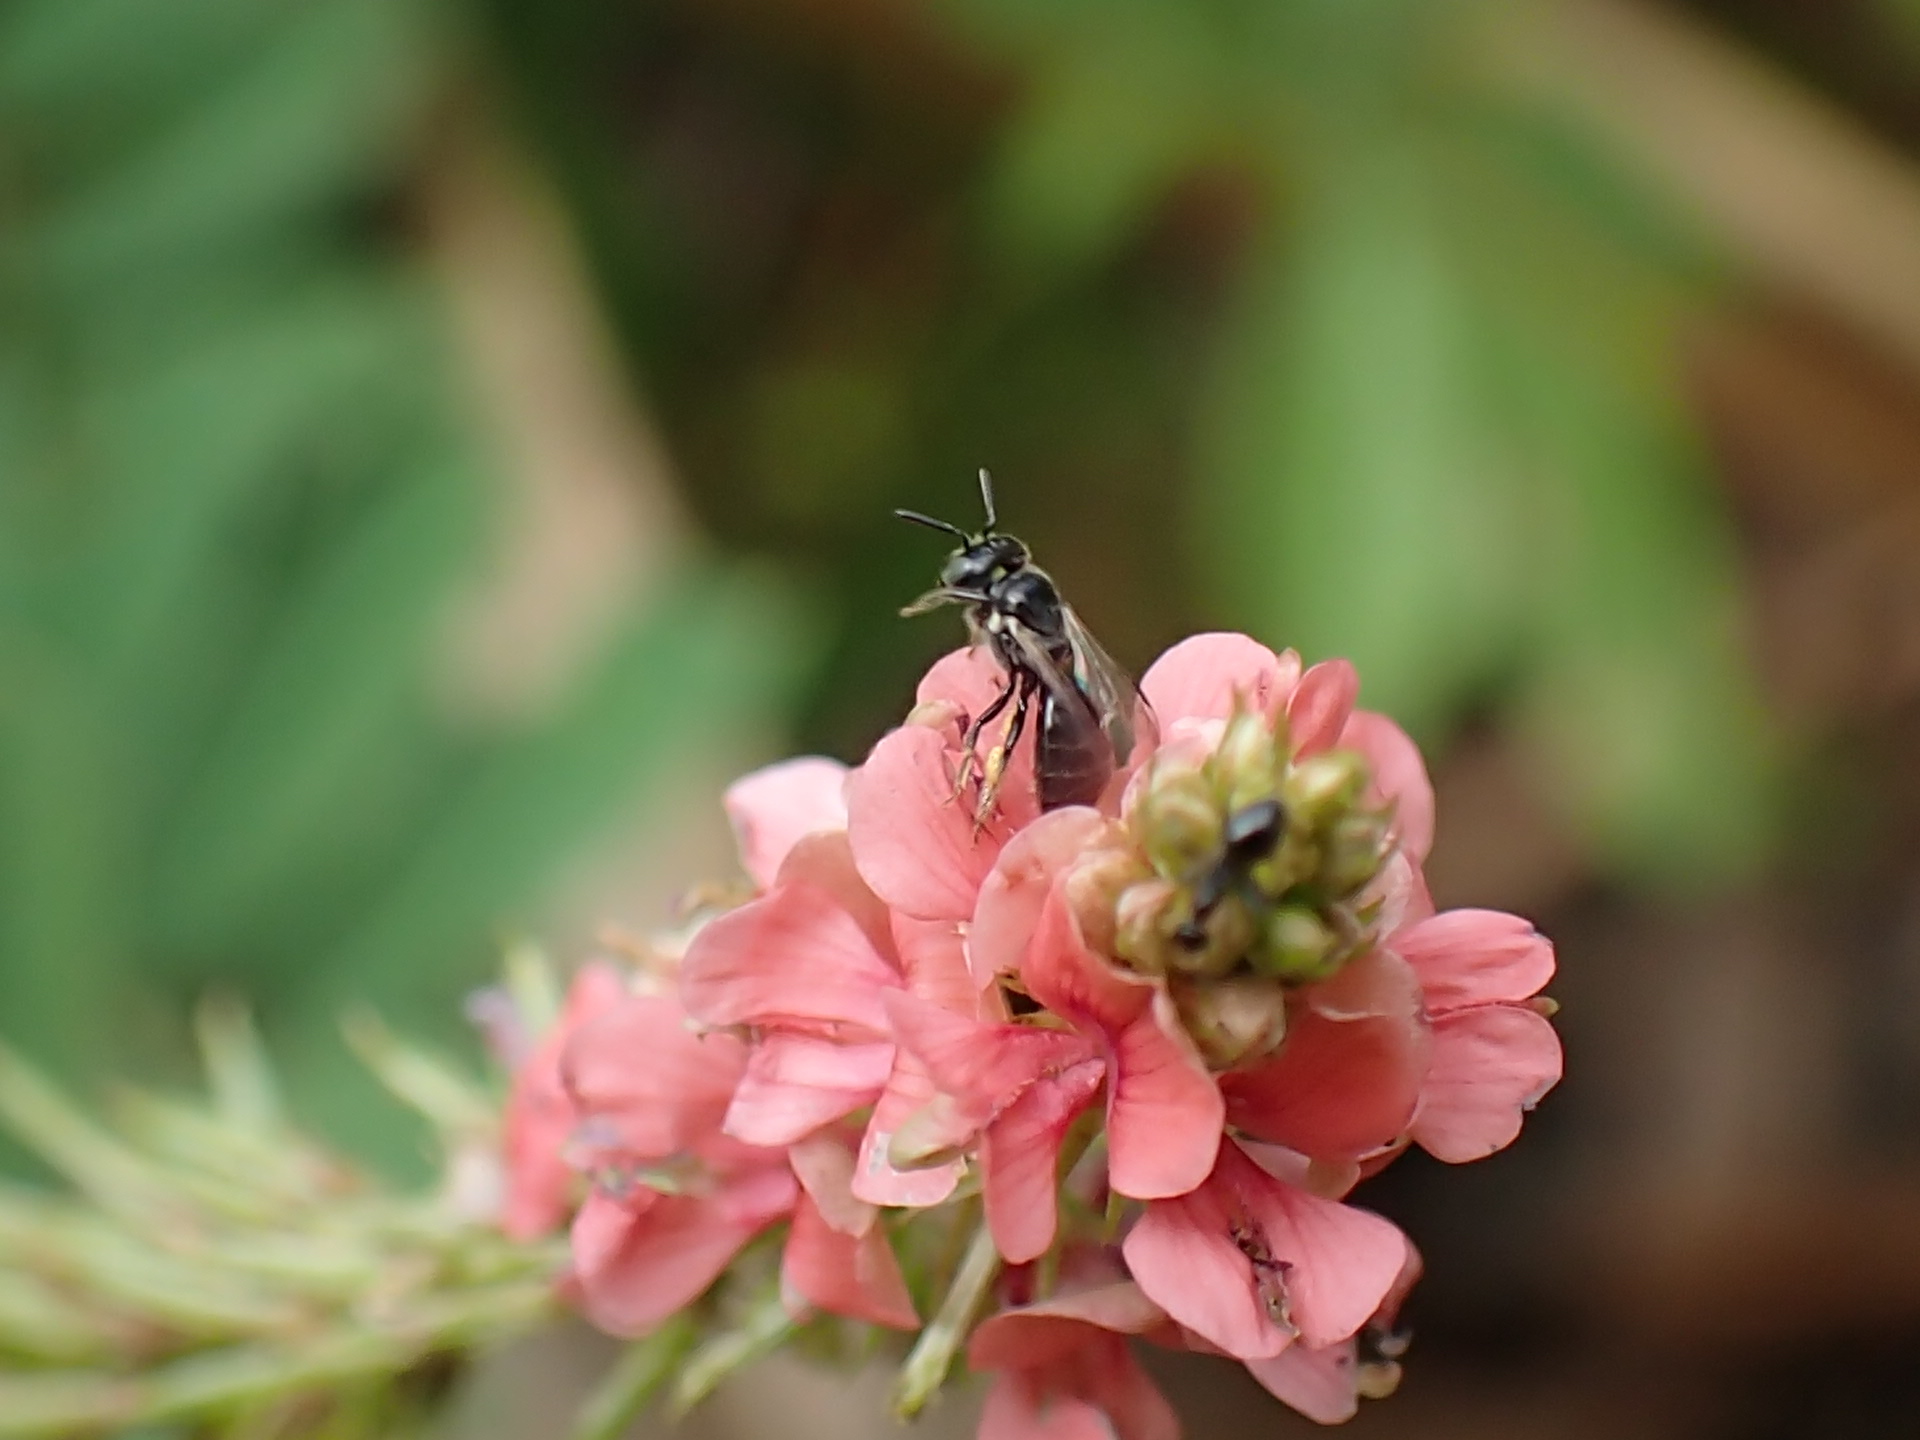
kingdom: Plantae
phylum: Tracheophyta
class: Magnoliopsida
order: Fabales
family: Fabaceae
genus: Indigofera
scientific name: Indigofera hendecaphylla
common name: Trailing indigo
